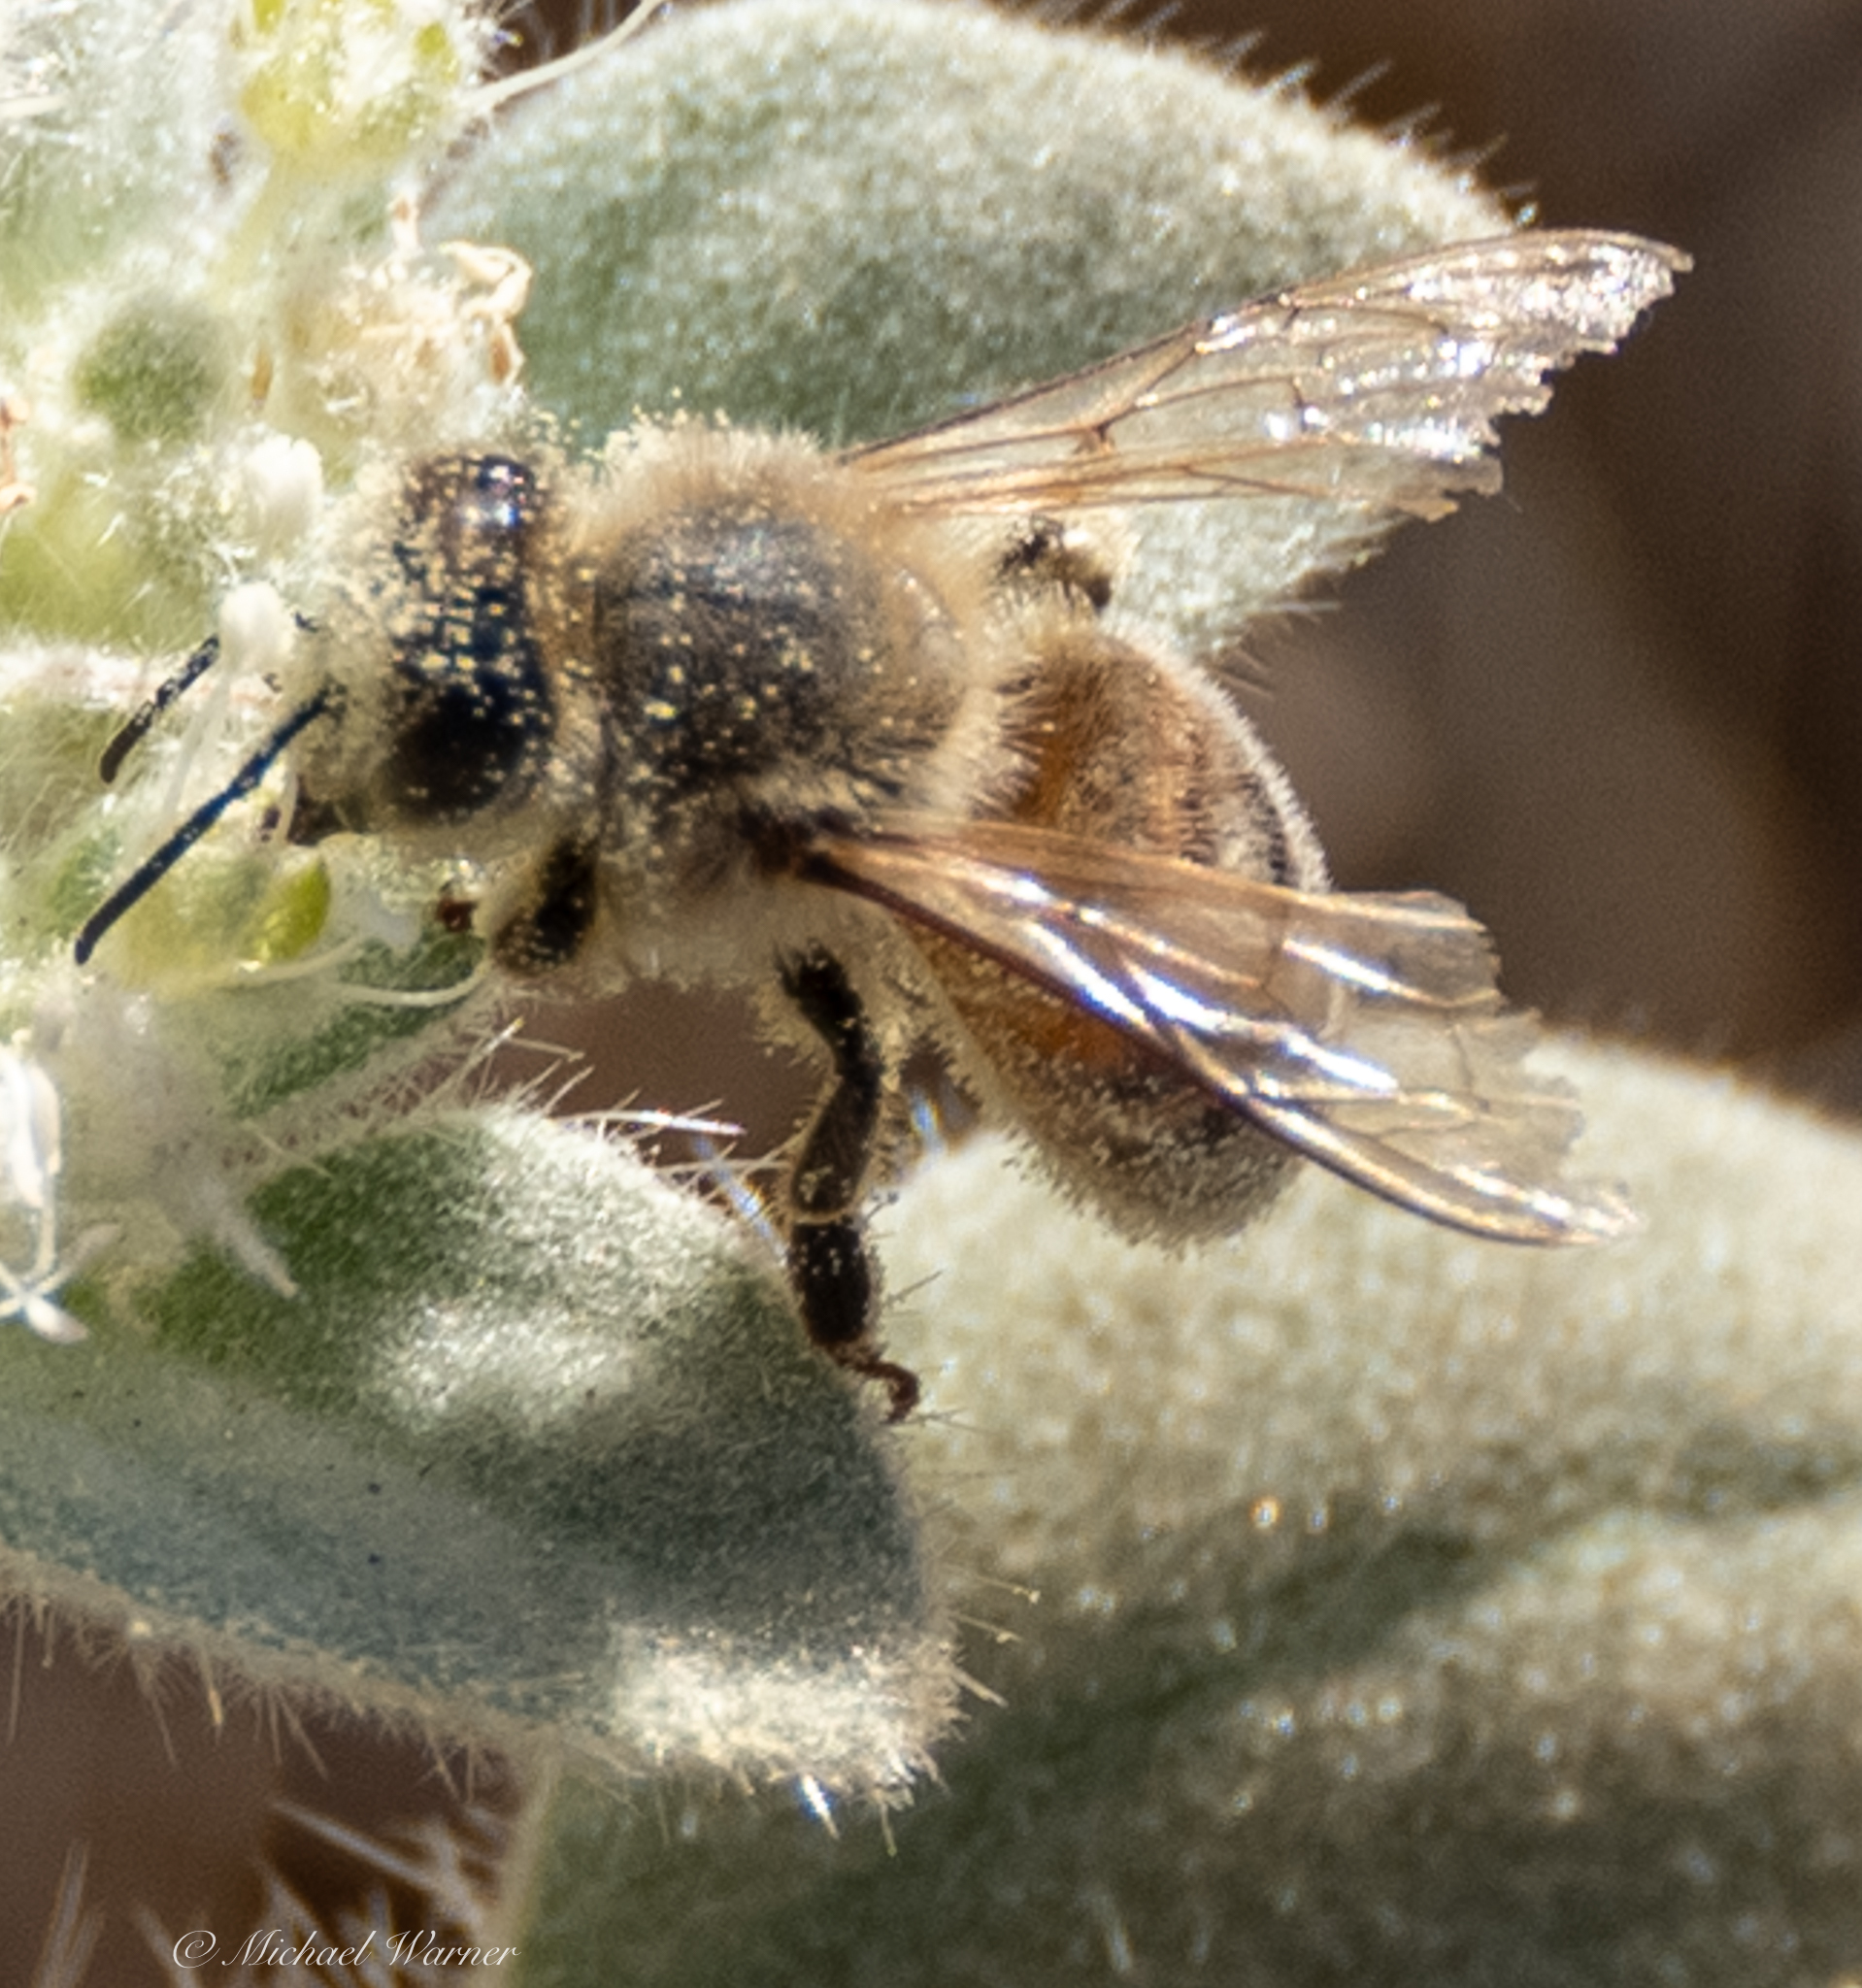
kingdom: Animalia
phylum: Arthropoda
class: Insecta
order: Hymenoptera
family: Apidae
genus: Apis
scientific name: Apis mellifera
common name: Honey bee
